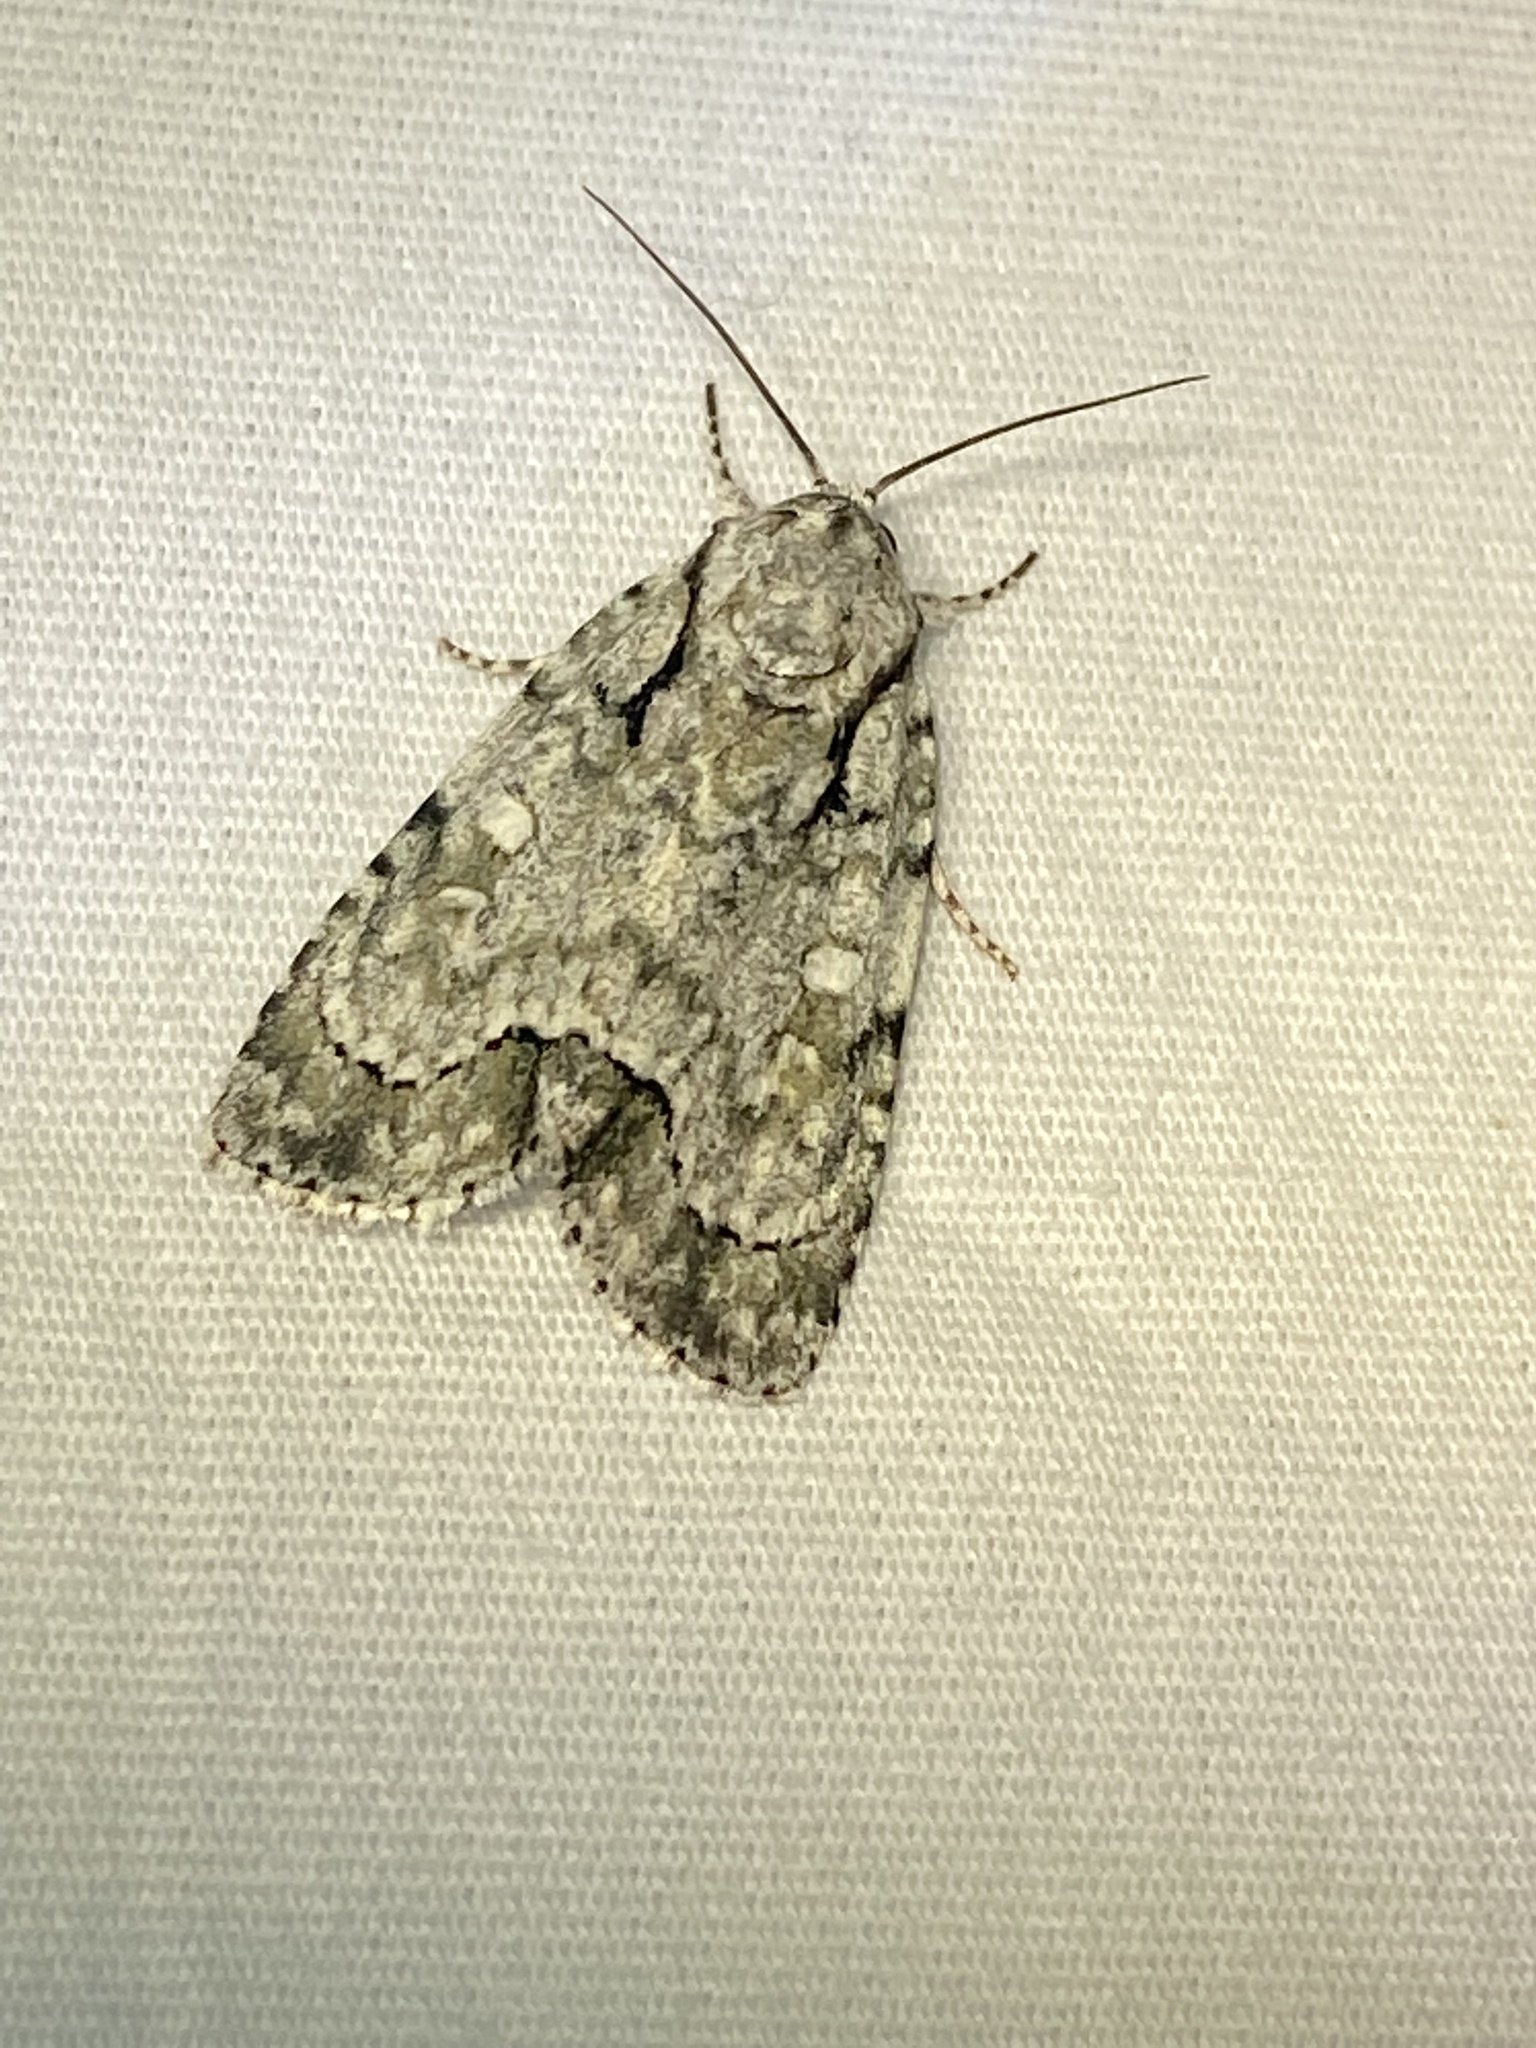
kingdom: Animalia
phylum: Arthropoda
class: Insecta
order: Lepidoptera
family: Noctuidae
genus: Acronicta
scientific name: Acronicta vinnula
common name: Delightful dagger
